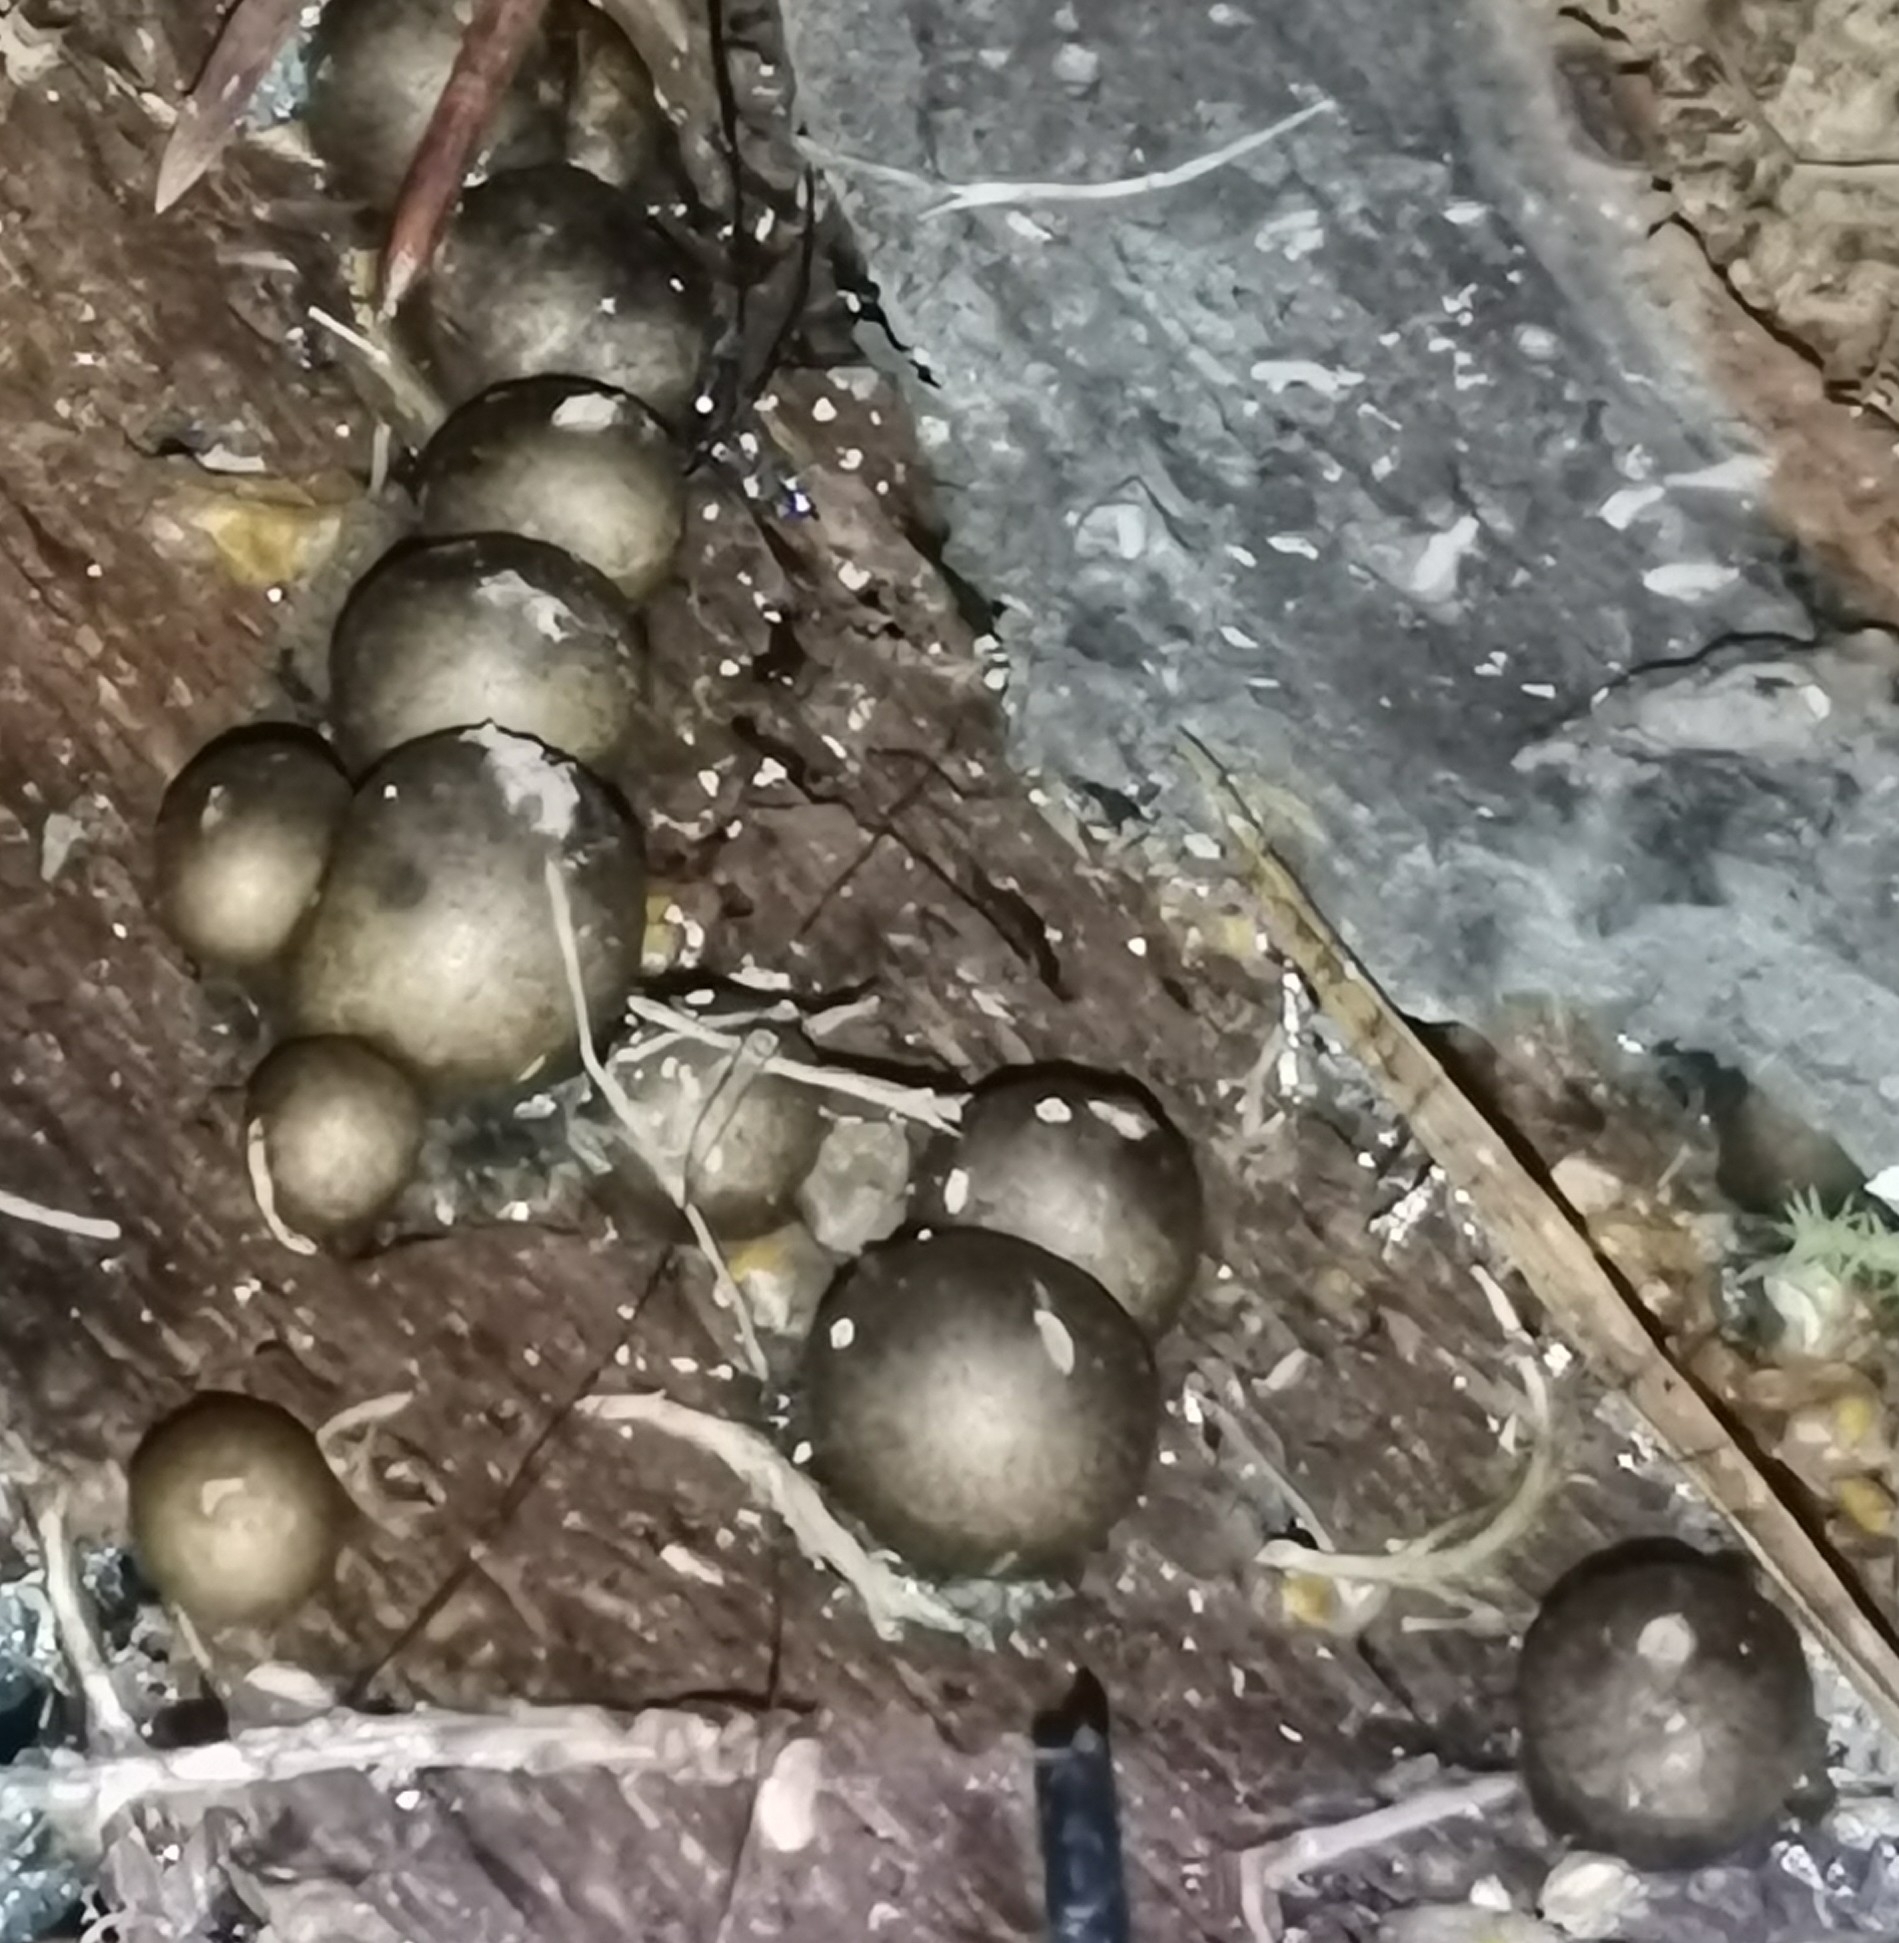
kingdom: Protozoa
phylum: Mycetozoa
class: Myxomycetes
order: Cribrariales
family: Tubiferaceae
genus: Lycogala
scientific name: Lycogala epidendrum
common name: Wolf's milk
